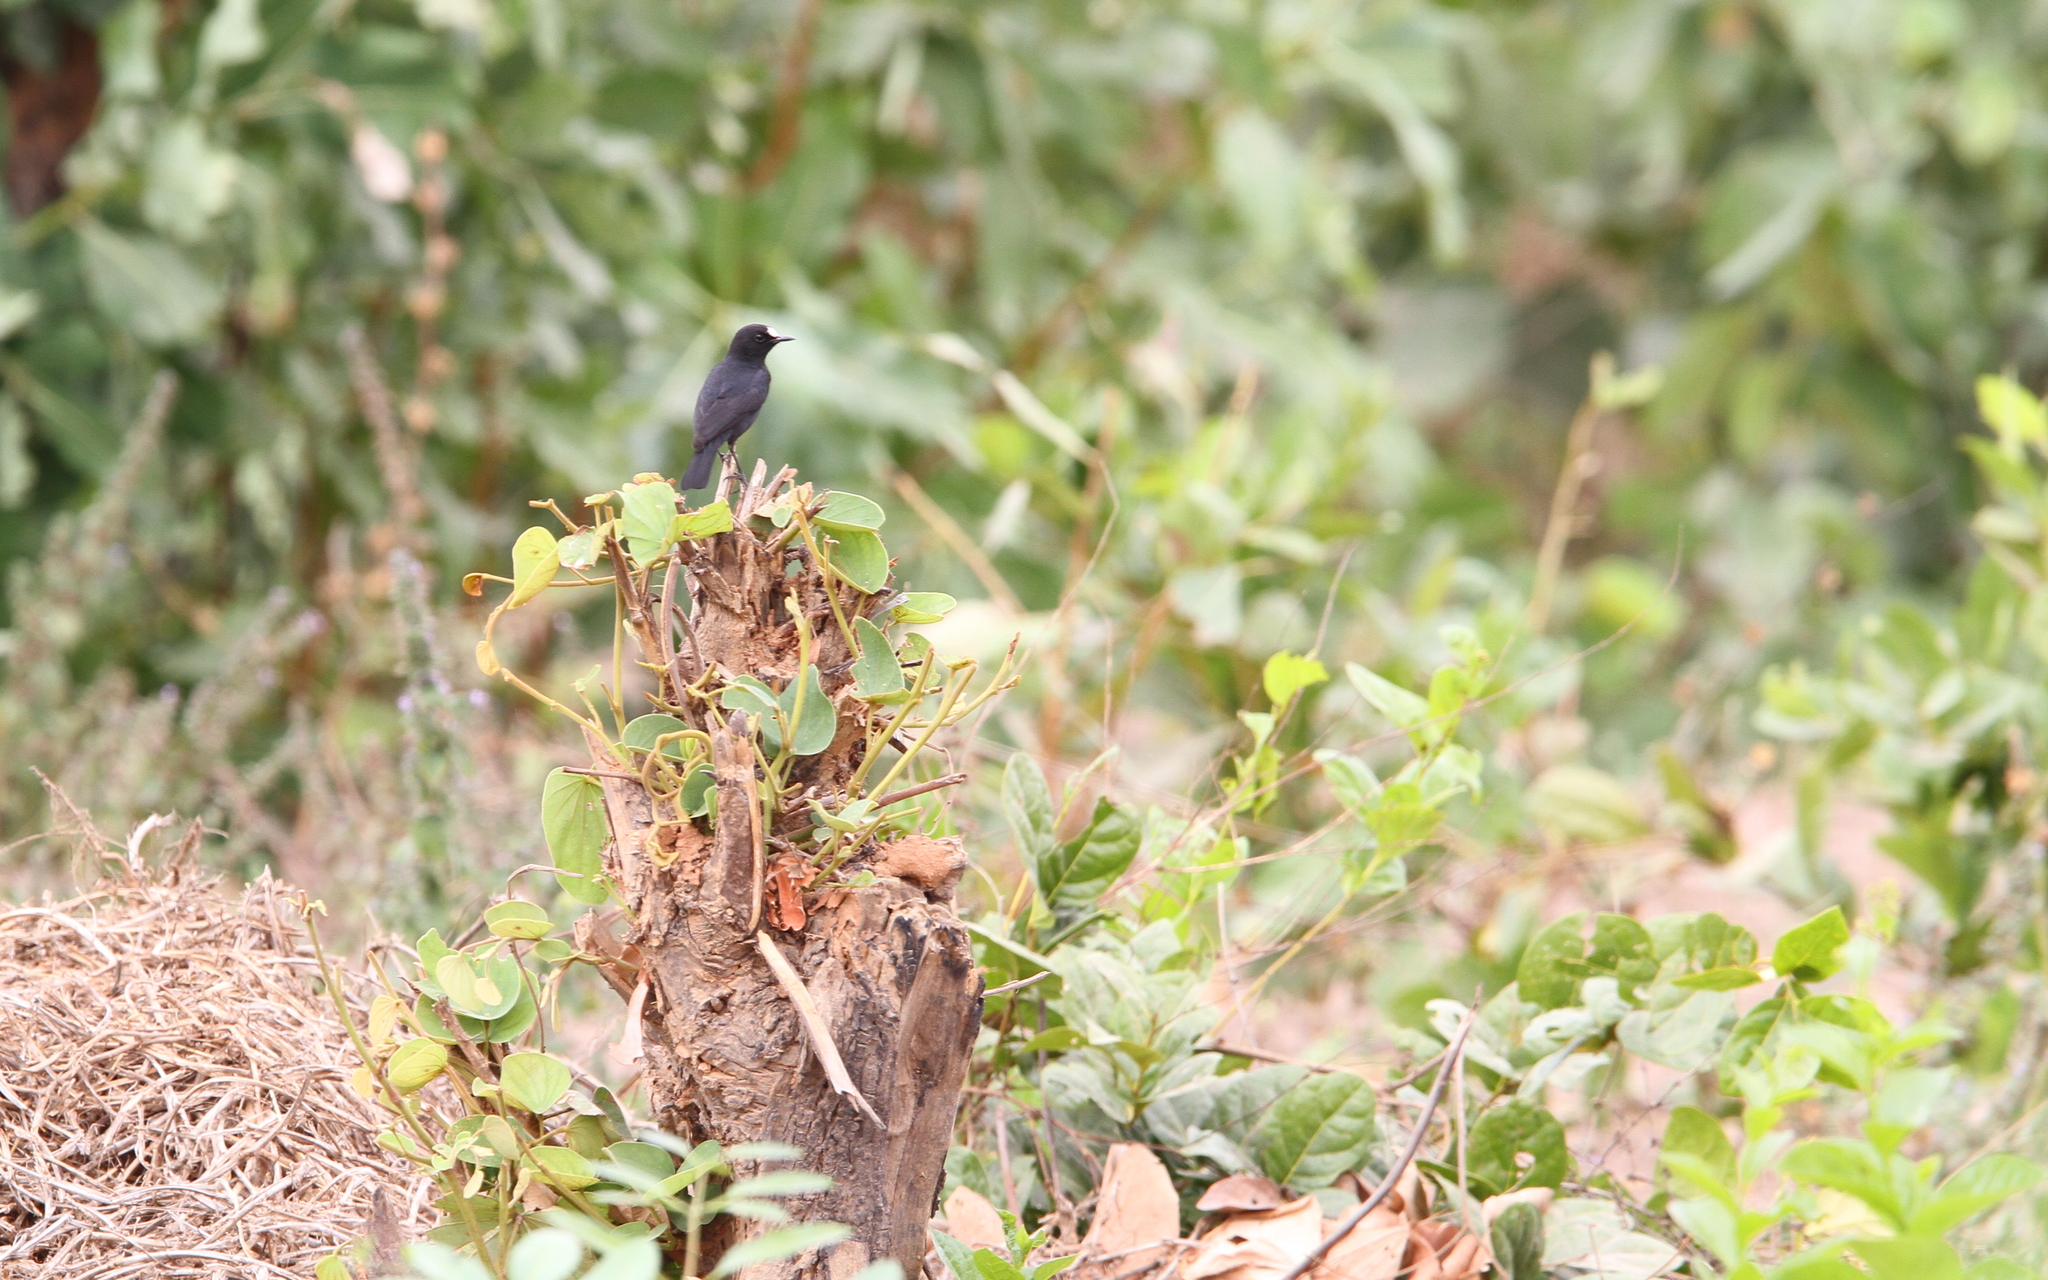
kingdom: Animalia
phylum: Chordata
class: Aves
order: Passeriformes
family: Muscicapidae
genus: Pentholaea
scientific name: Pentholaea albifrons
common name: White-fronted black chat
